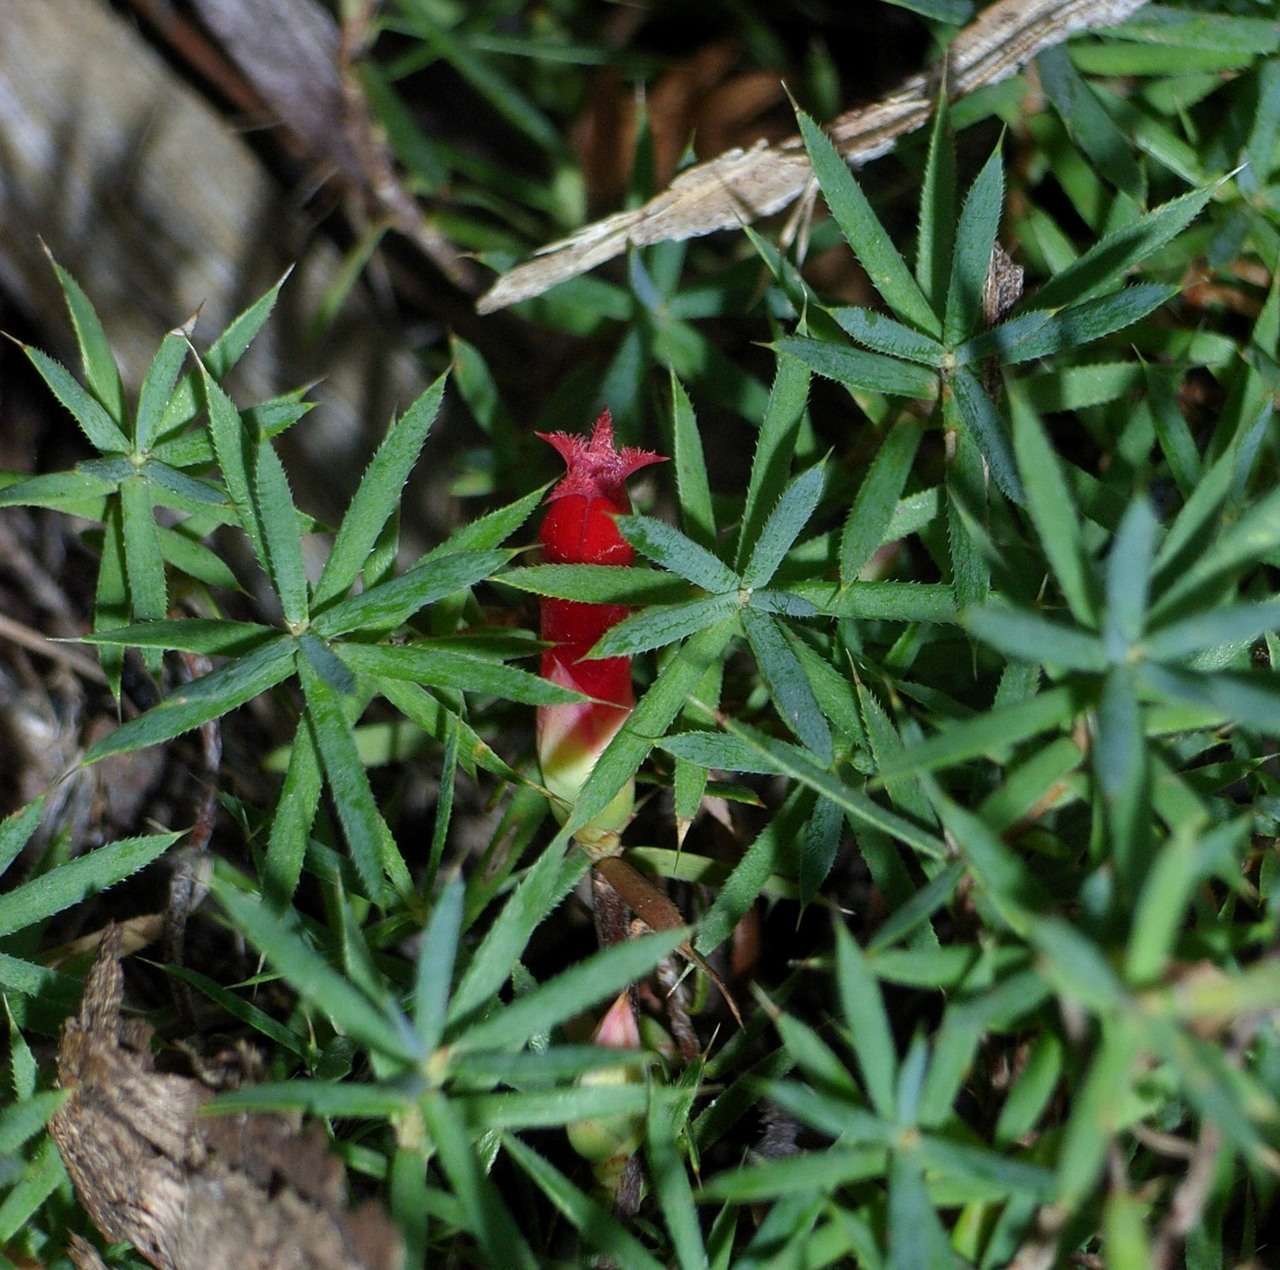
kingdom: Plantae
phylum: Tracheophyta
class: Magnoliopsida
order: Ericales
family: Ericaceae
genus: Styphelia
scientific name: Styphelia humifusa
